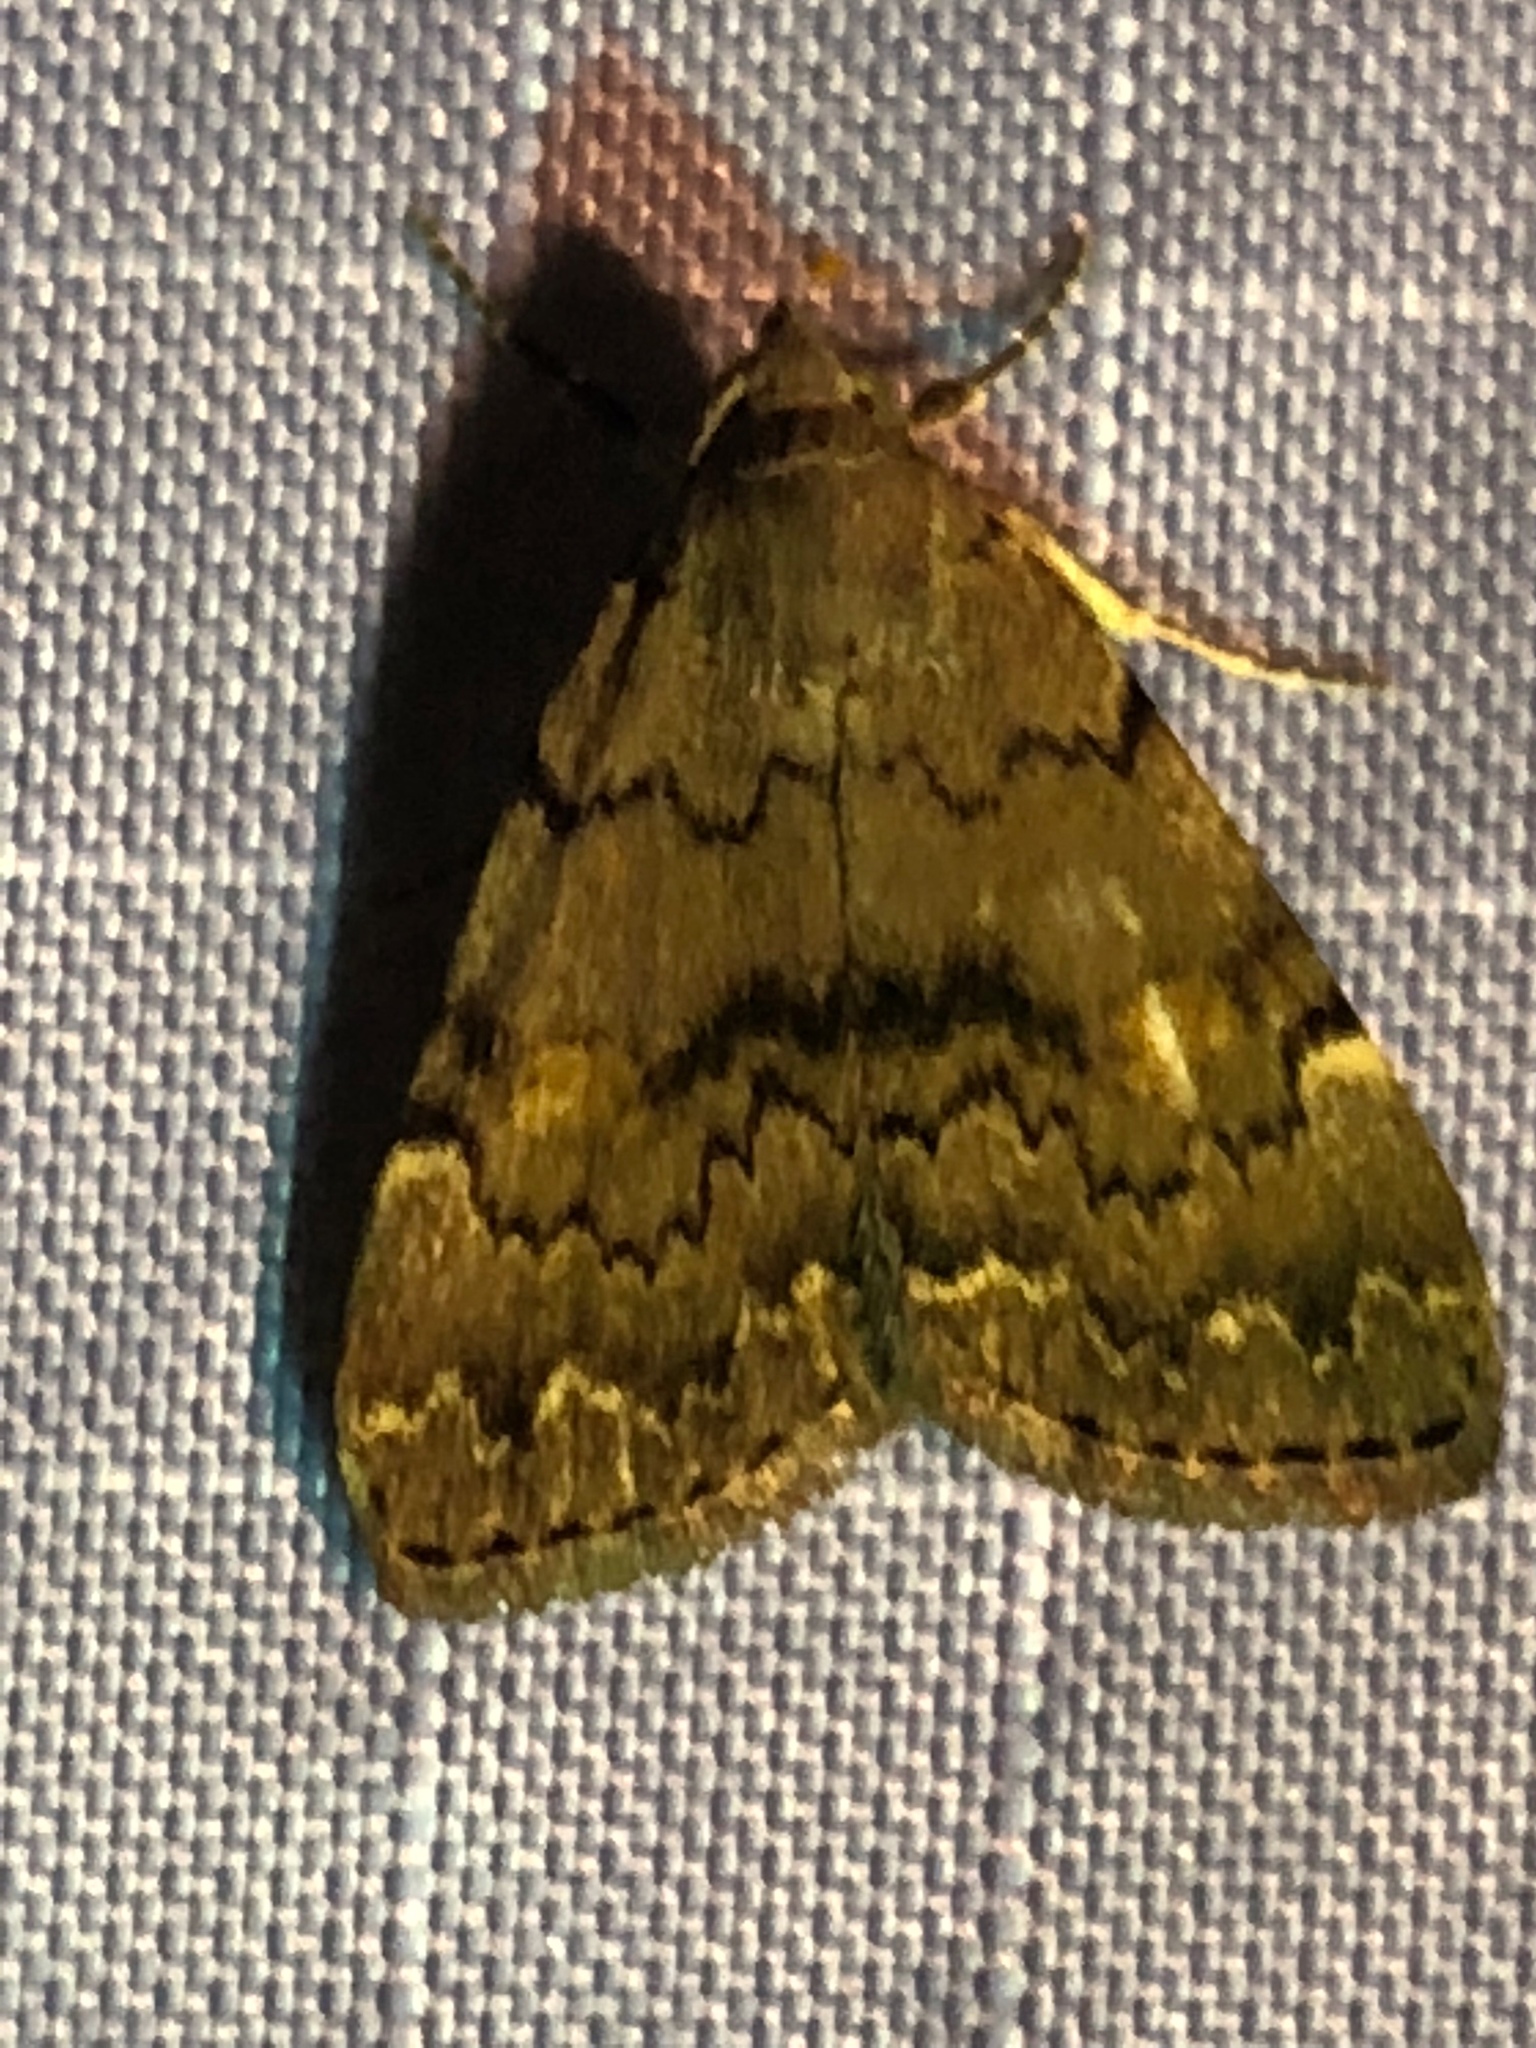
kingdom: Animalia
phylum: Arthropoda
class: Insecta
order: Lepidoptera
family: Erebidae
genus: Idia
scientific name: Idia aemula
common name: Common idia moth
